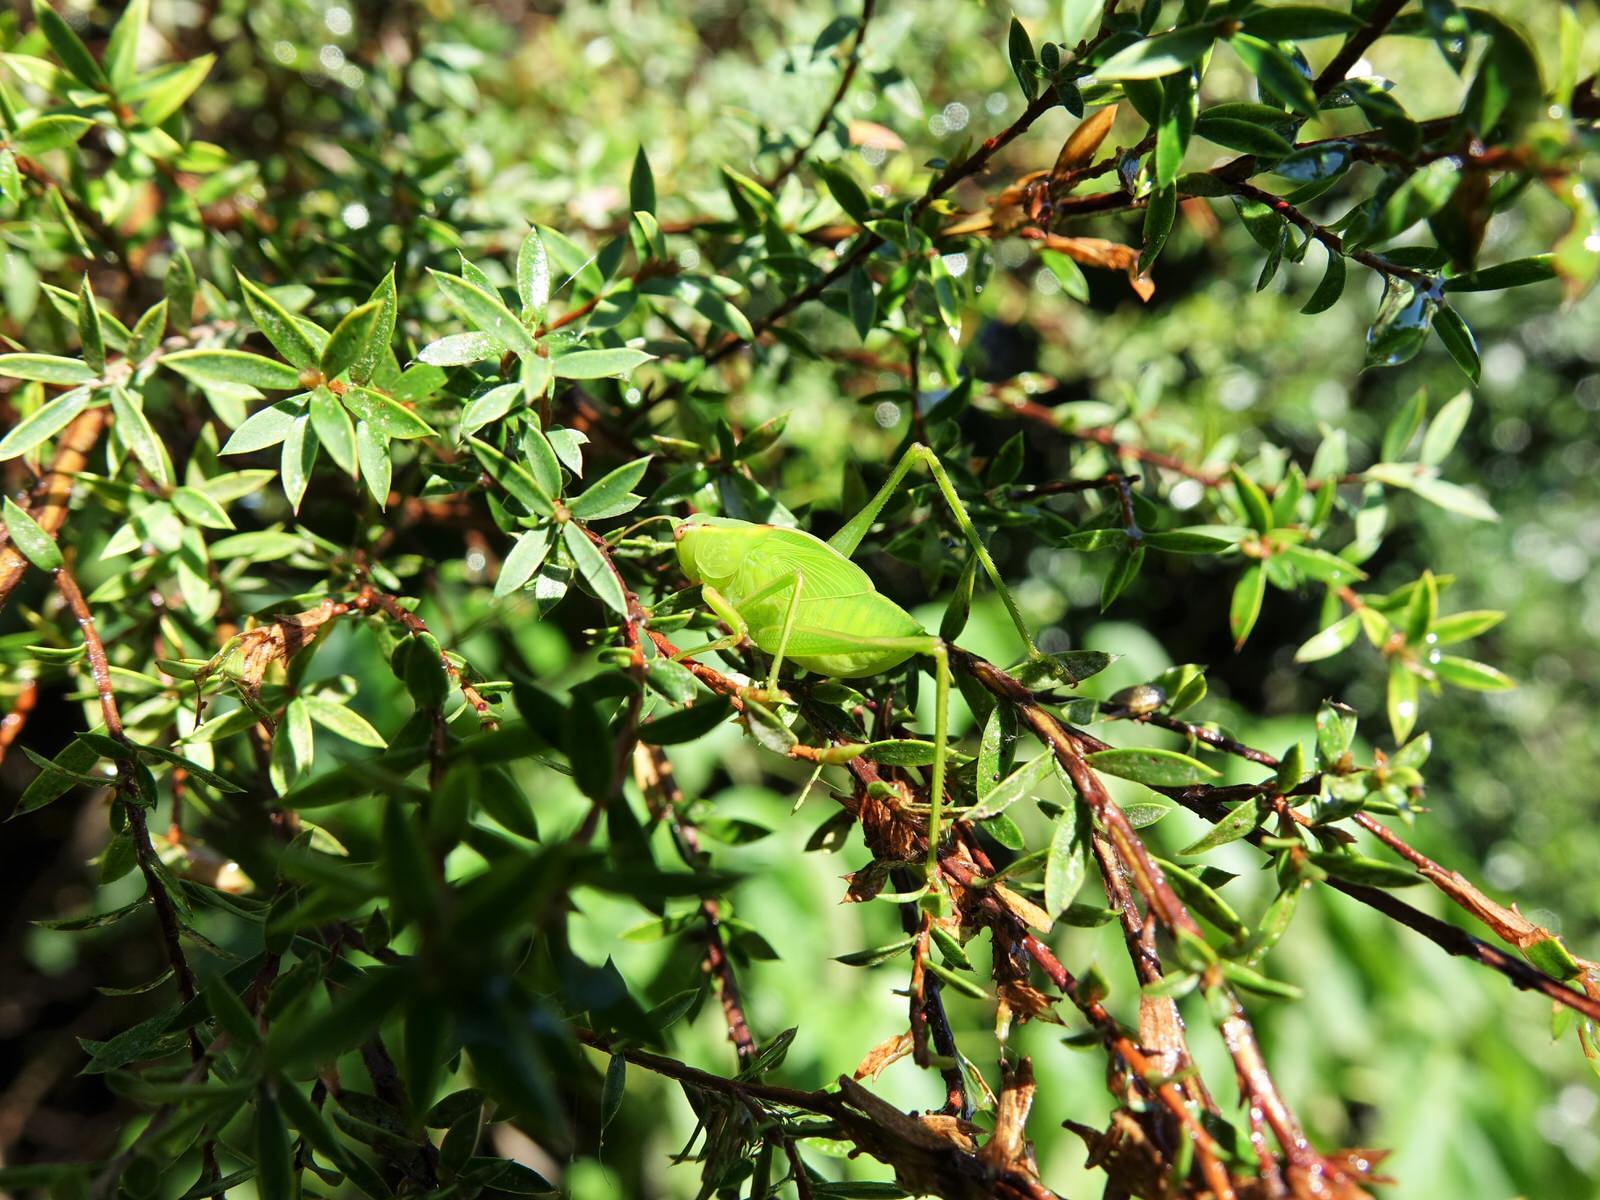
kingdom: Animalia
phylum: Arthropoda
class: Insecta
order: Orthoptera
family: Tettigoniidae
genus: Caedicia
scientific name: Caedicia simplex
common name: Common garden katydid
